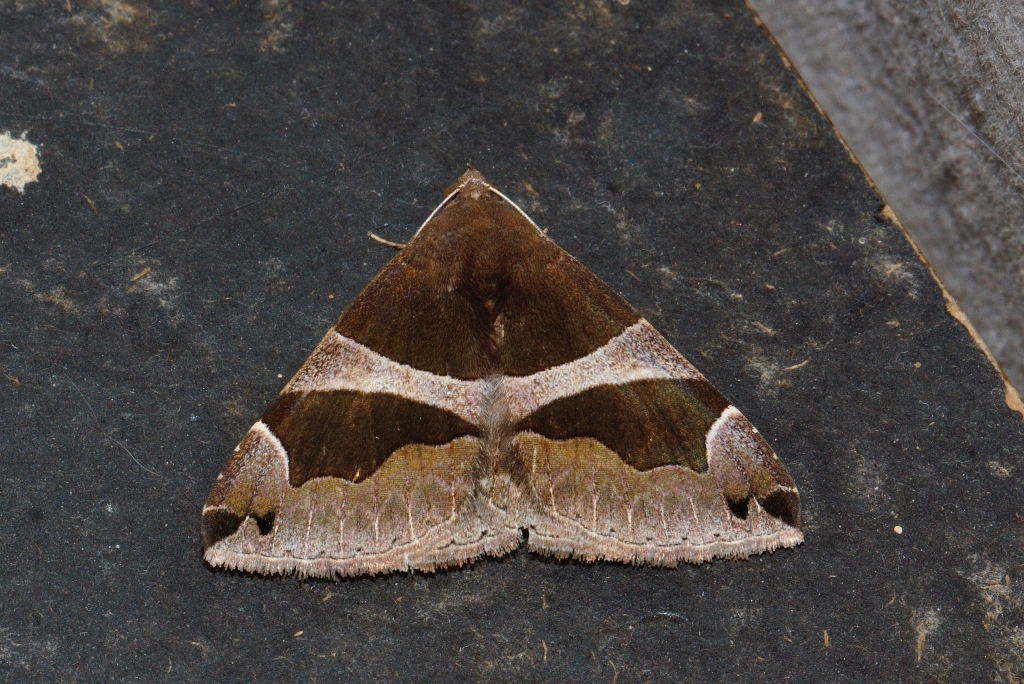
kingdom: Animalia
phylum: Arthropoda
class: Insecta
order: Lepidoptera
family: Erebidae
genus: Dysgonia
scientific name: Dysgonia torrida
